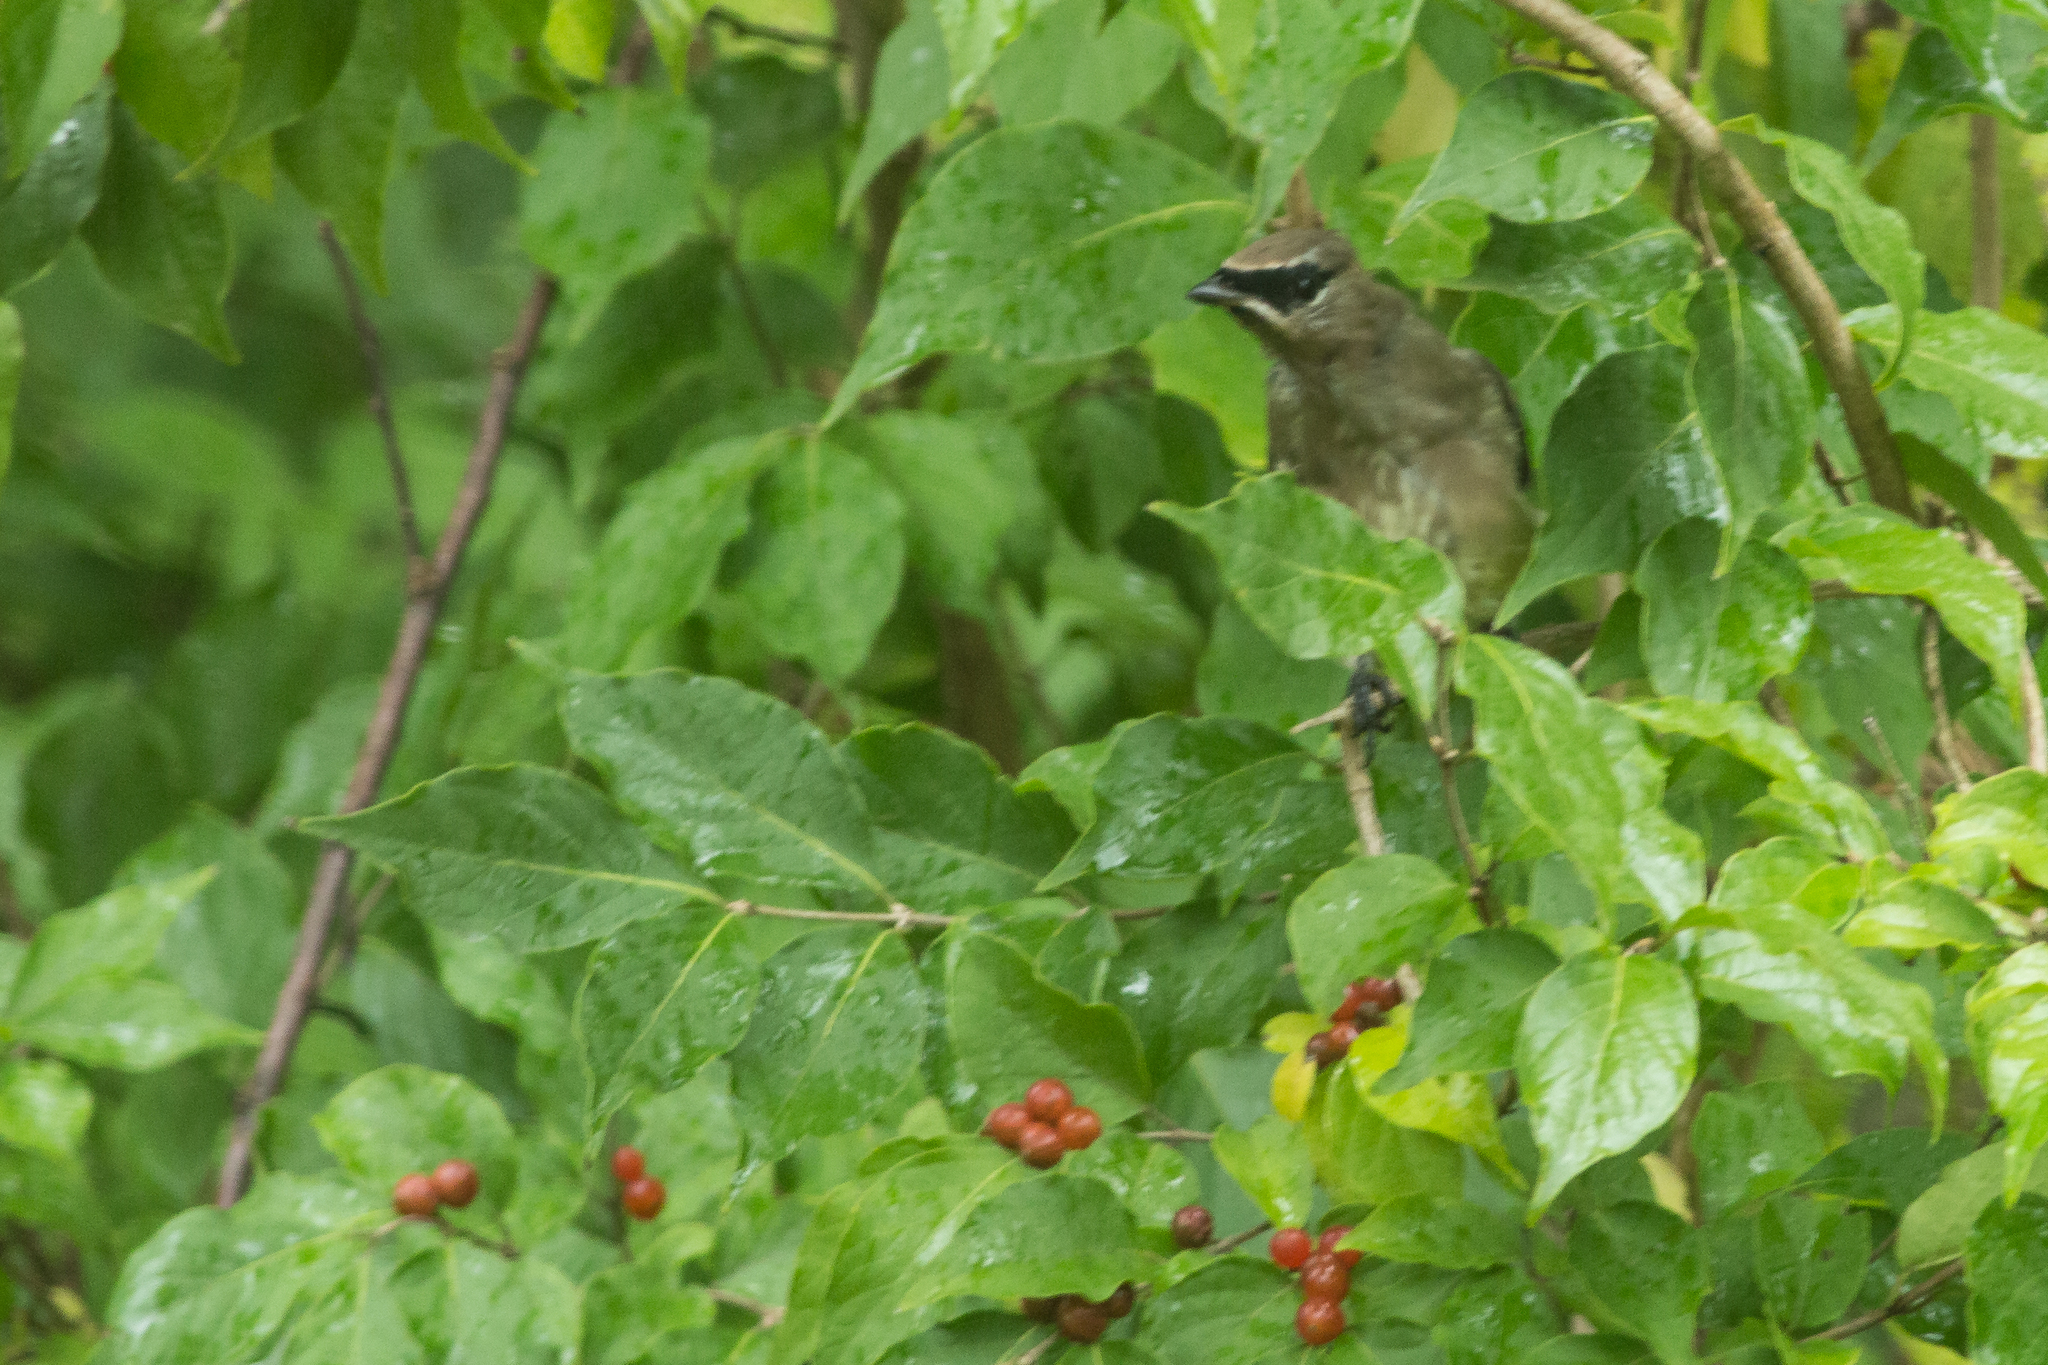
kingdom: Animalia
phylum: Chordata
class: Aves
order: Passeriformes
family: Bombycillidae
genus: Bombycilla
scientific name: Bombycilla cedrorum
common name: Cedar waxwing
